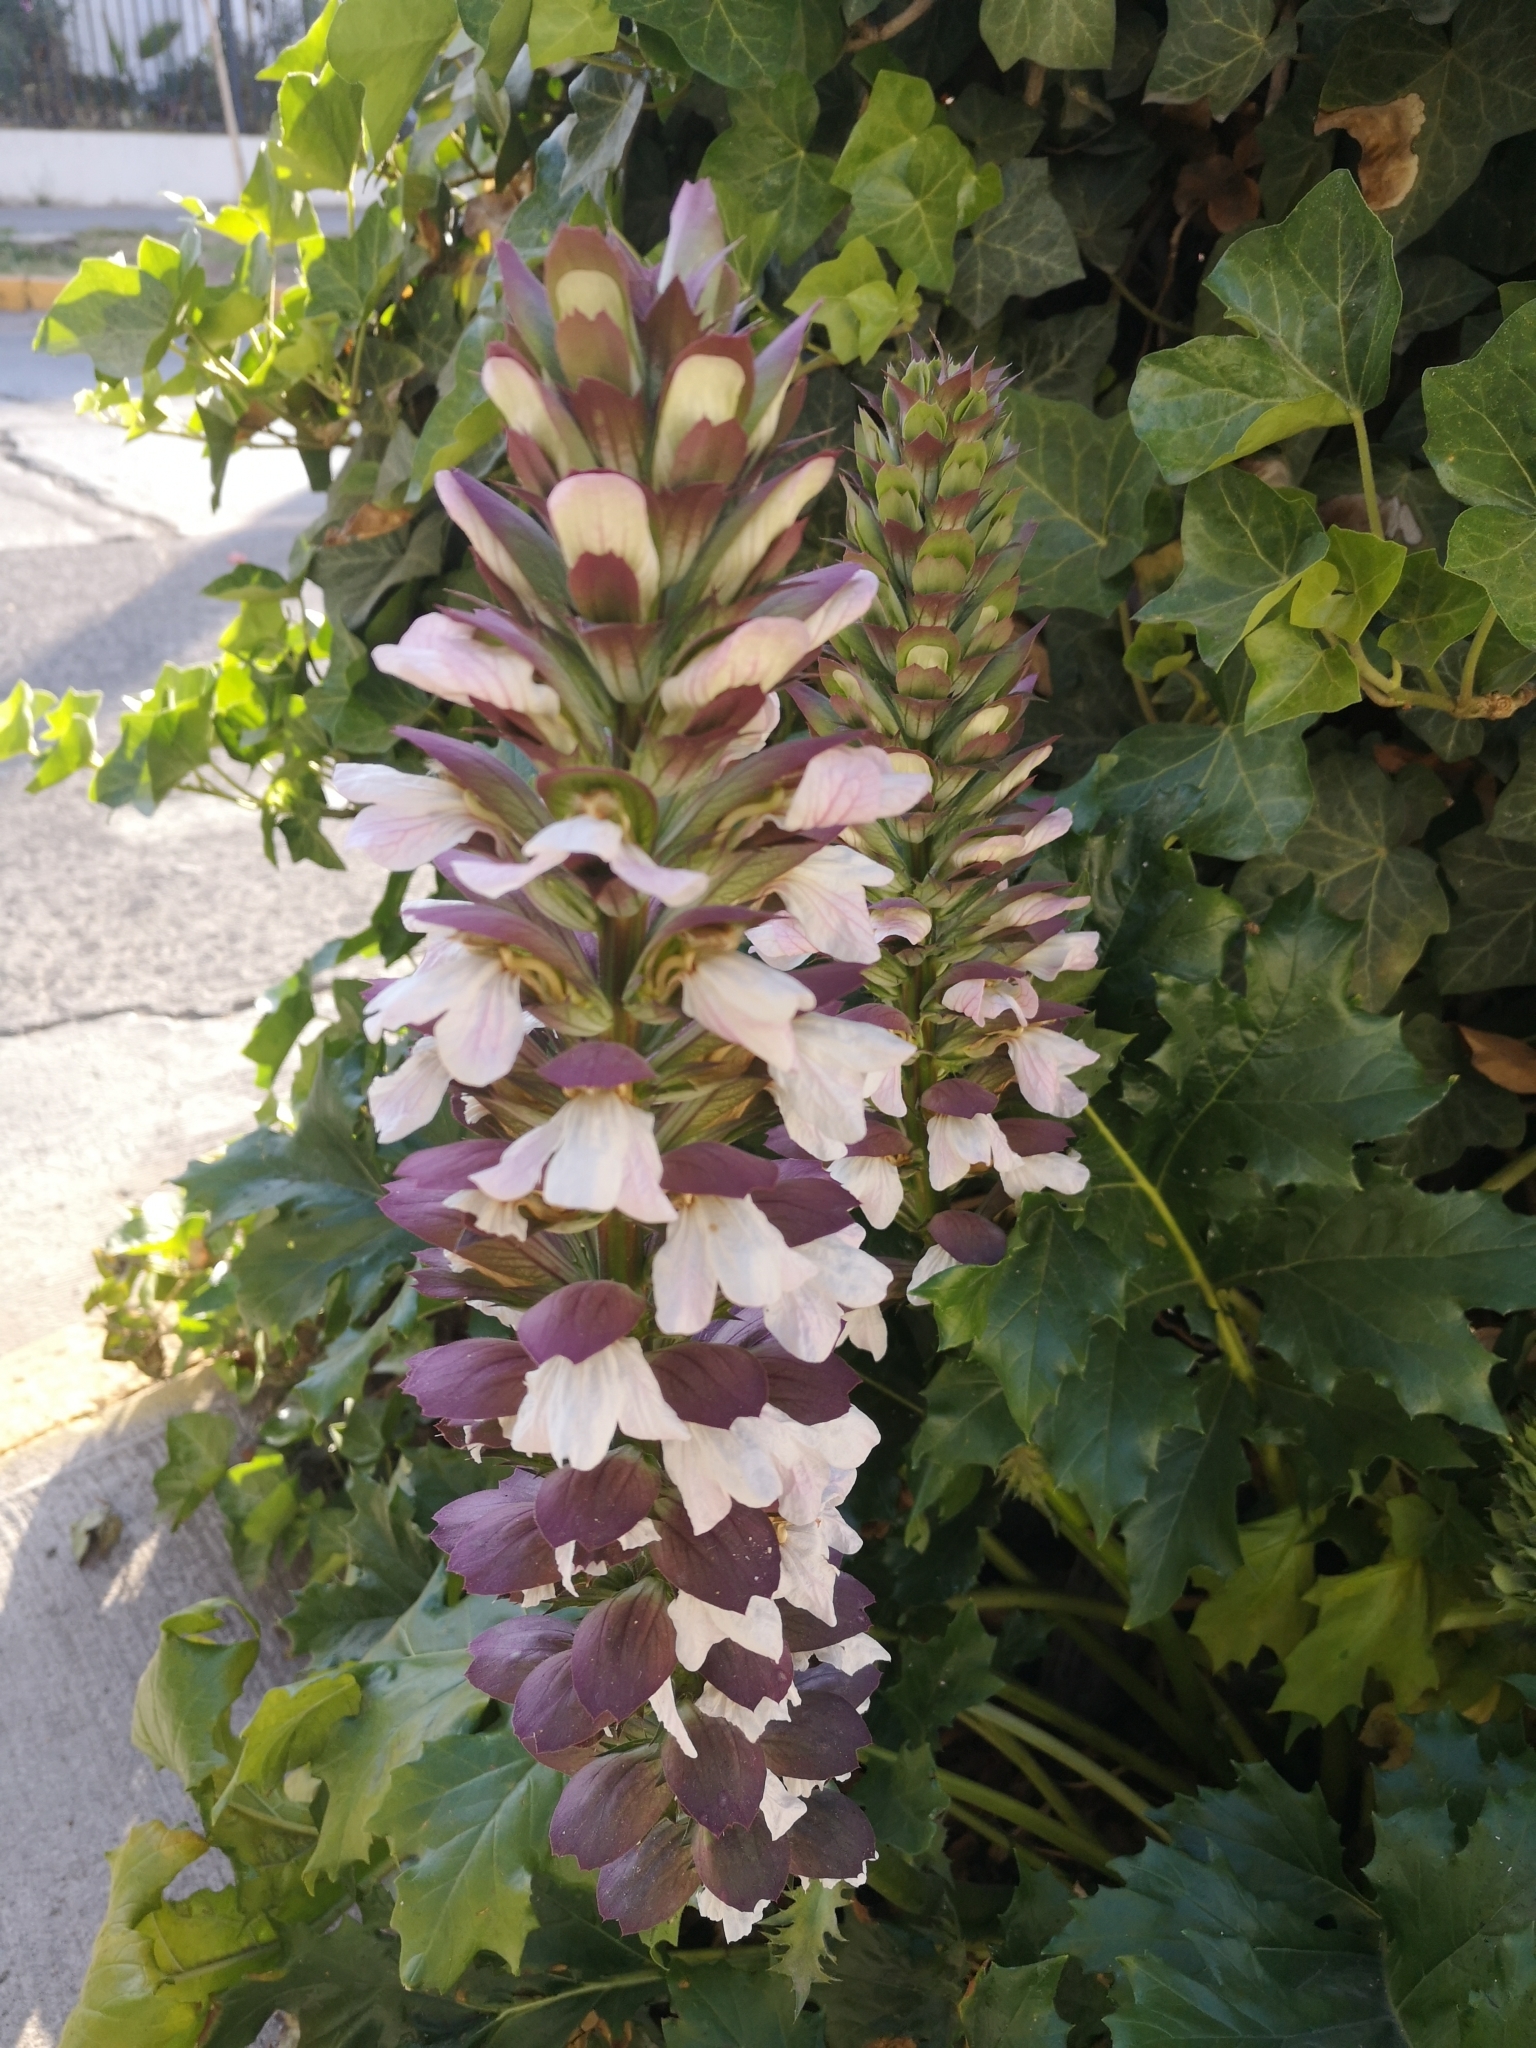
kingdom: Plantae
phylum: Tracheophyta
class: Magnoliopsida
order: Lamiales
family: Acanthaceae
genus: Acanthus
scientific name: Acanthus mollis
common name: Bear's-breech
